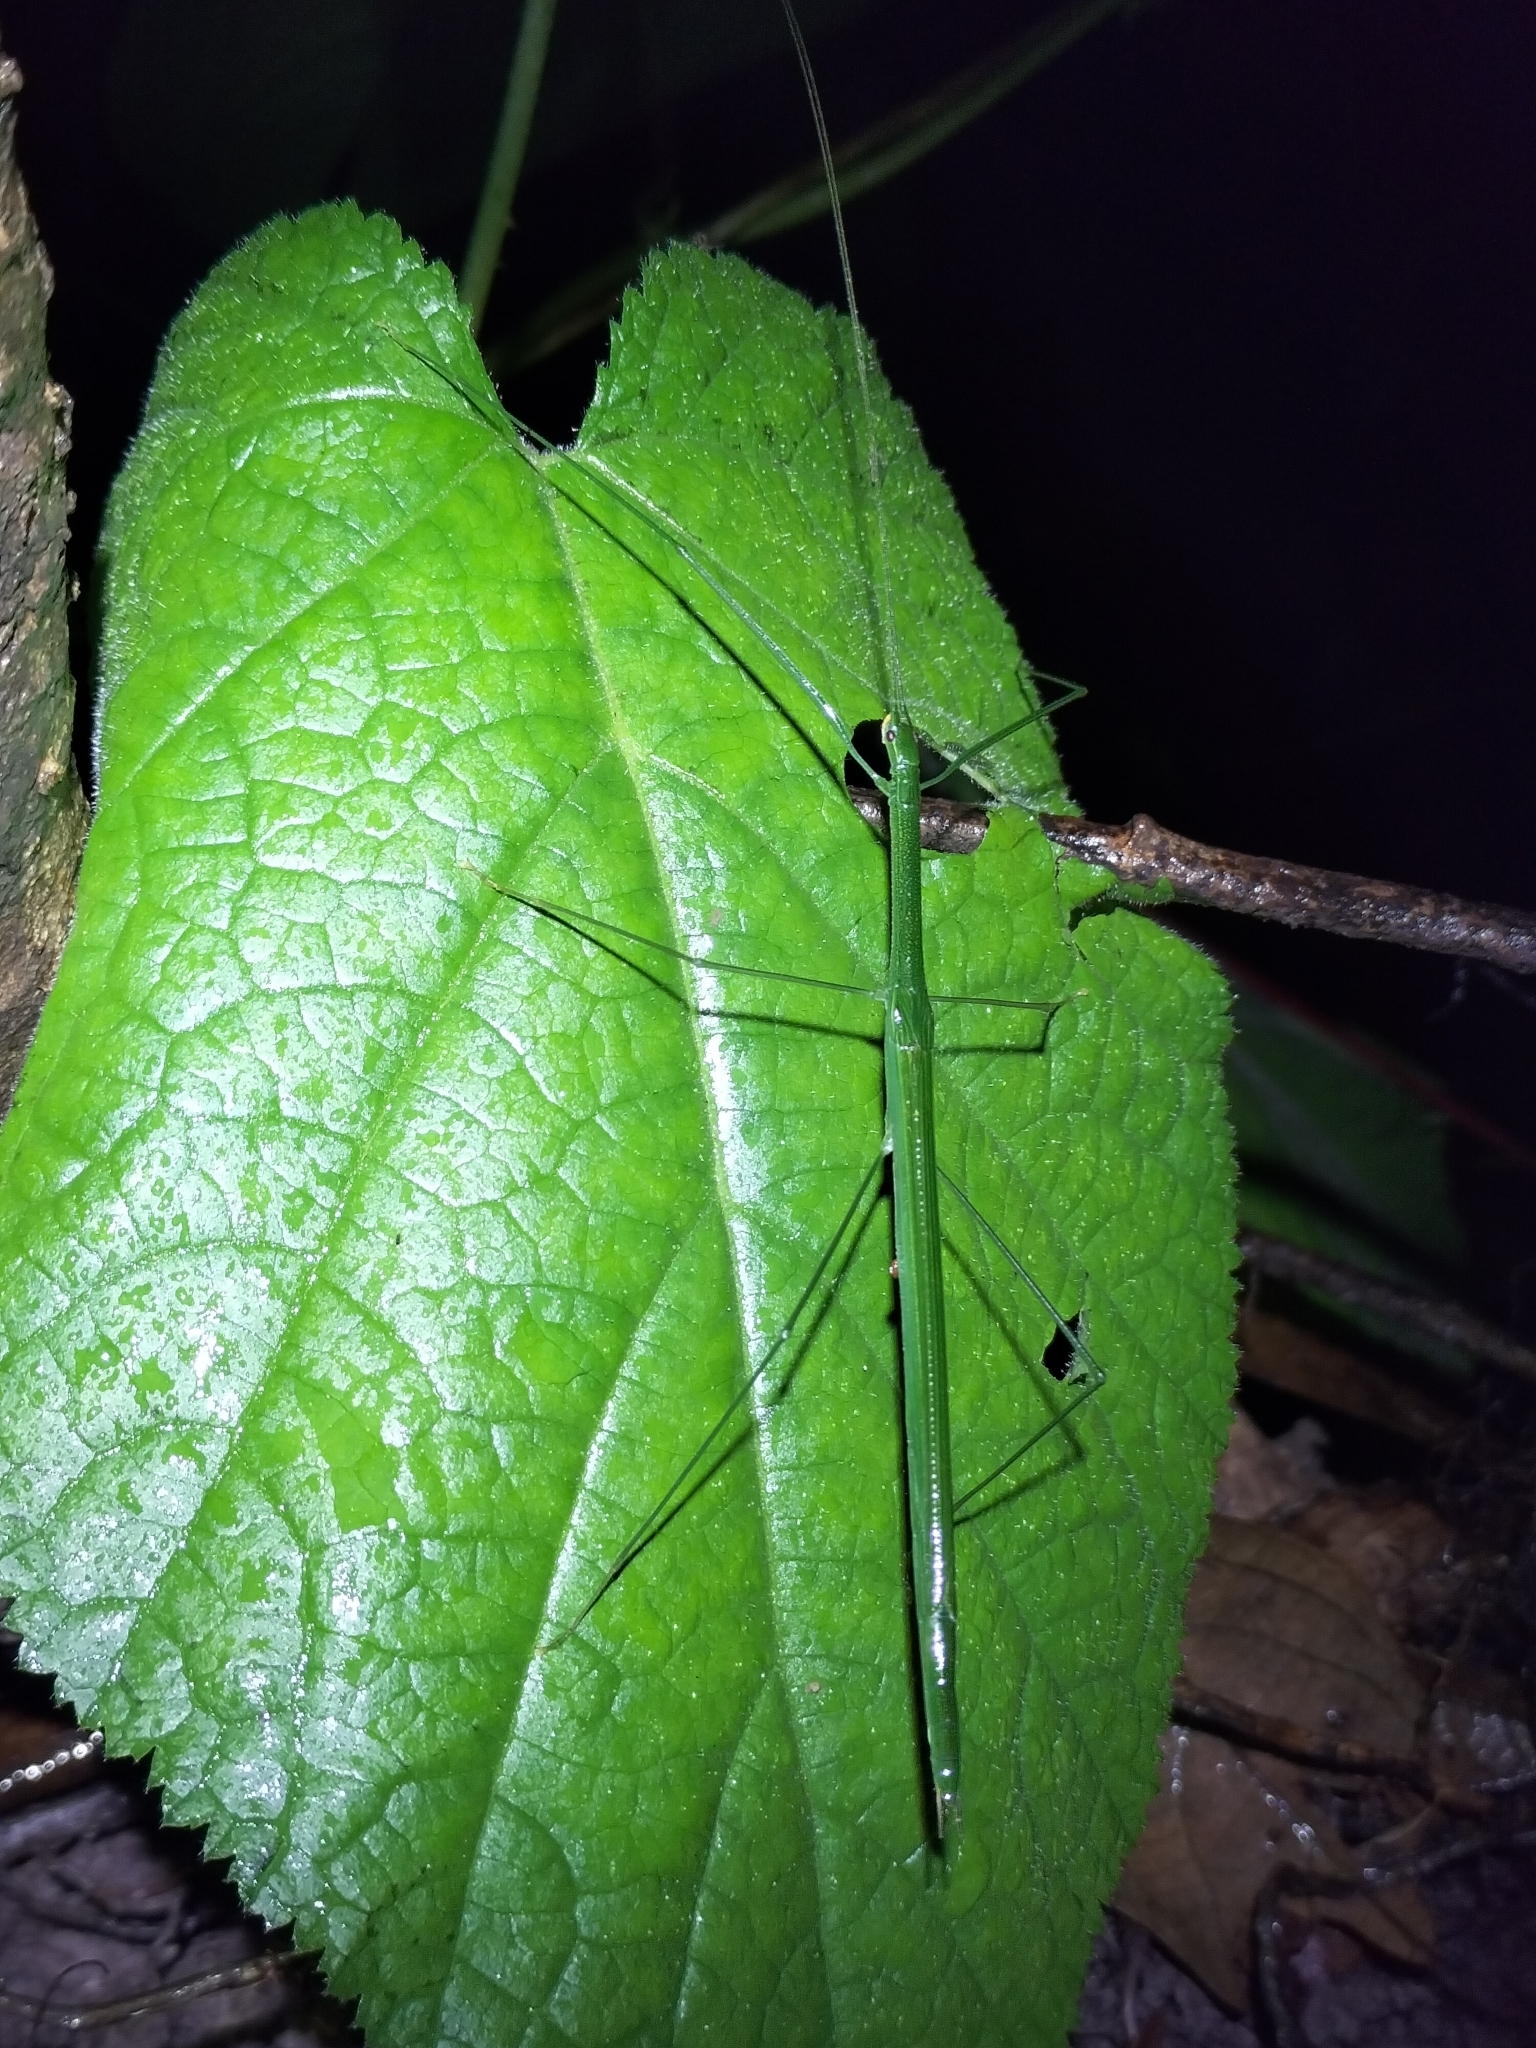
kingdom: Animalia
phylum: Arthropoda
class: Insecta
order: Phasmida
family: Lonchodidae
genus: Sipyloidea
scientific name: Sipyloidea rentzi
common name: Rentz's sipyloidea stick-insect
